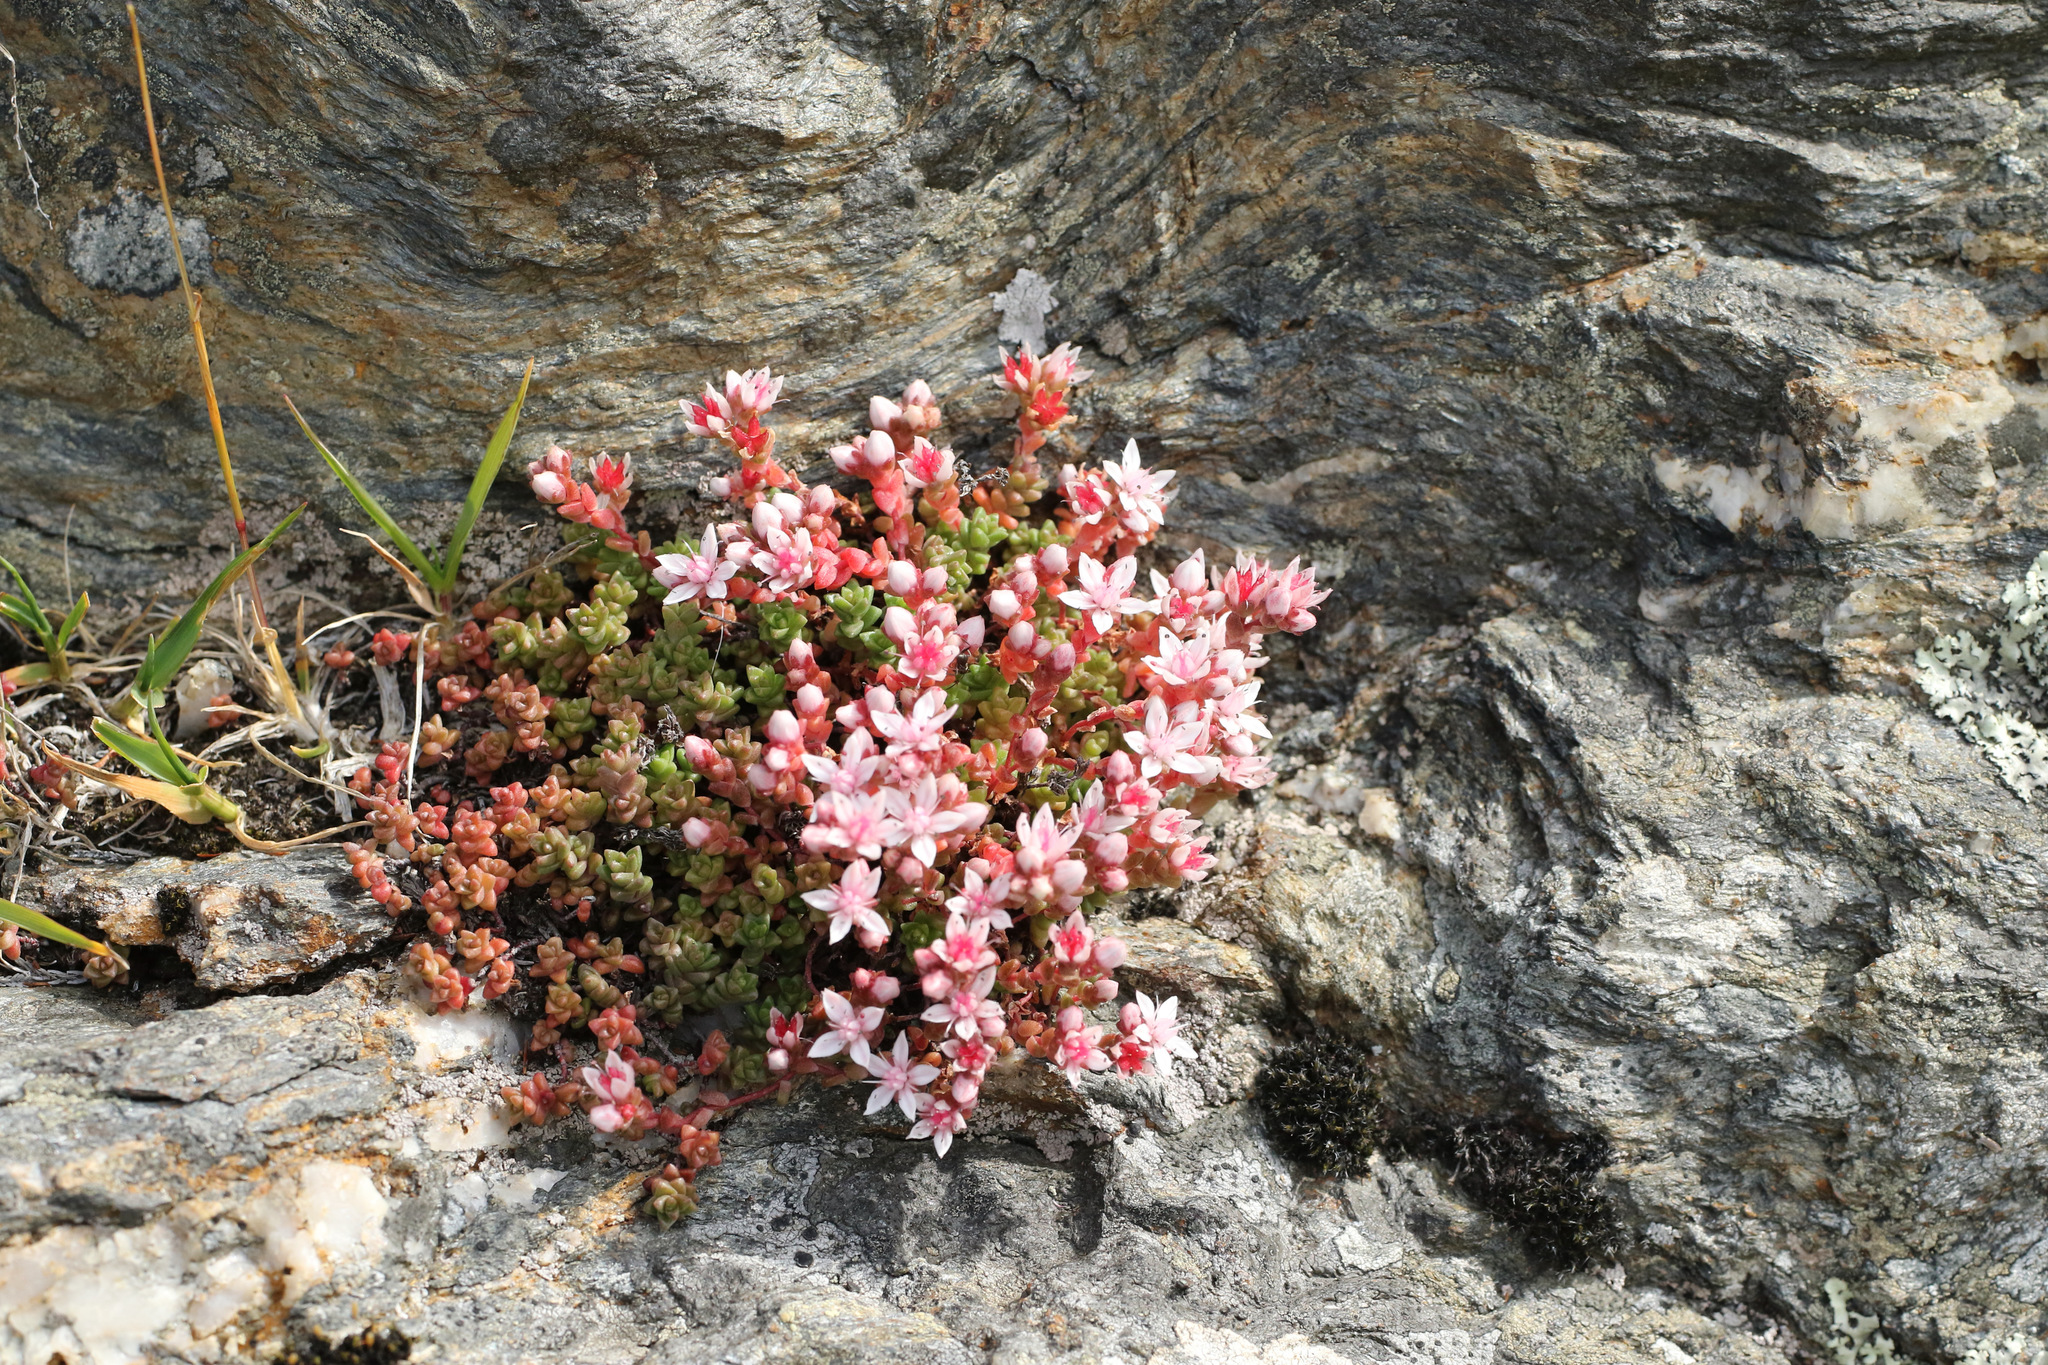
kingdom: Plantae
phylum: Tracheophyta
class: Magnoliopsida
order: Saxifragales
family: Crassulaceae
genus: Sedum
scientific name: Sedum anglicum
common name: English stonecrop
